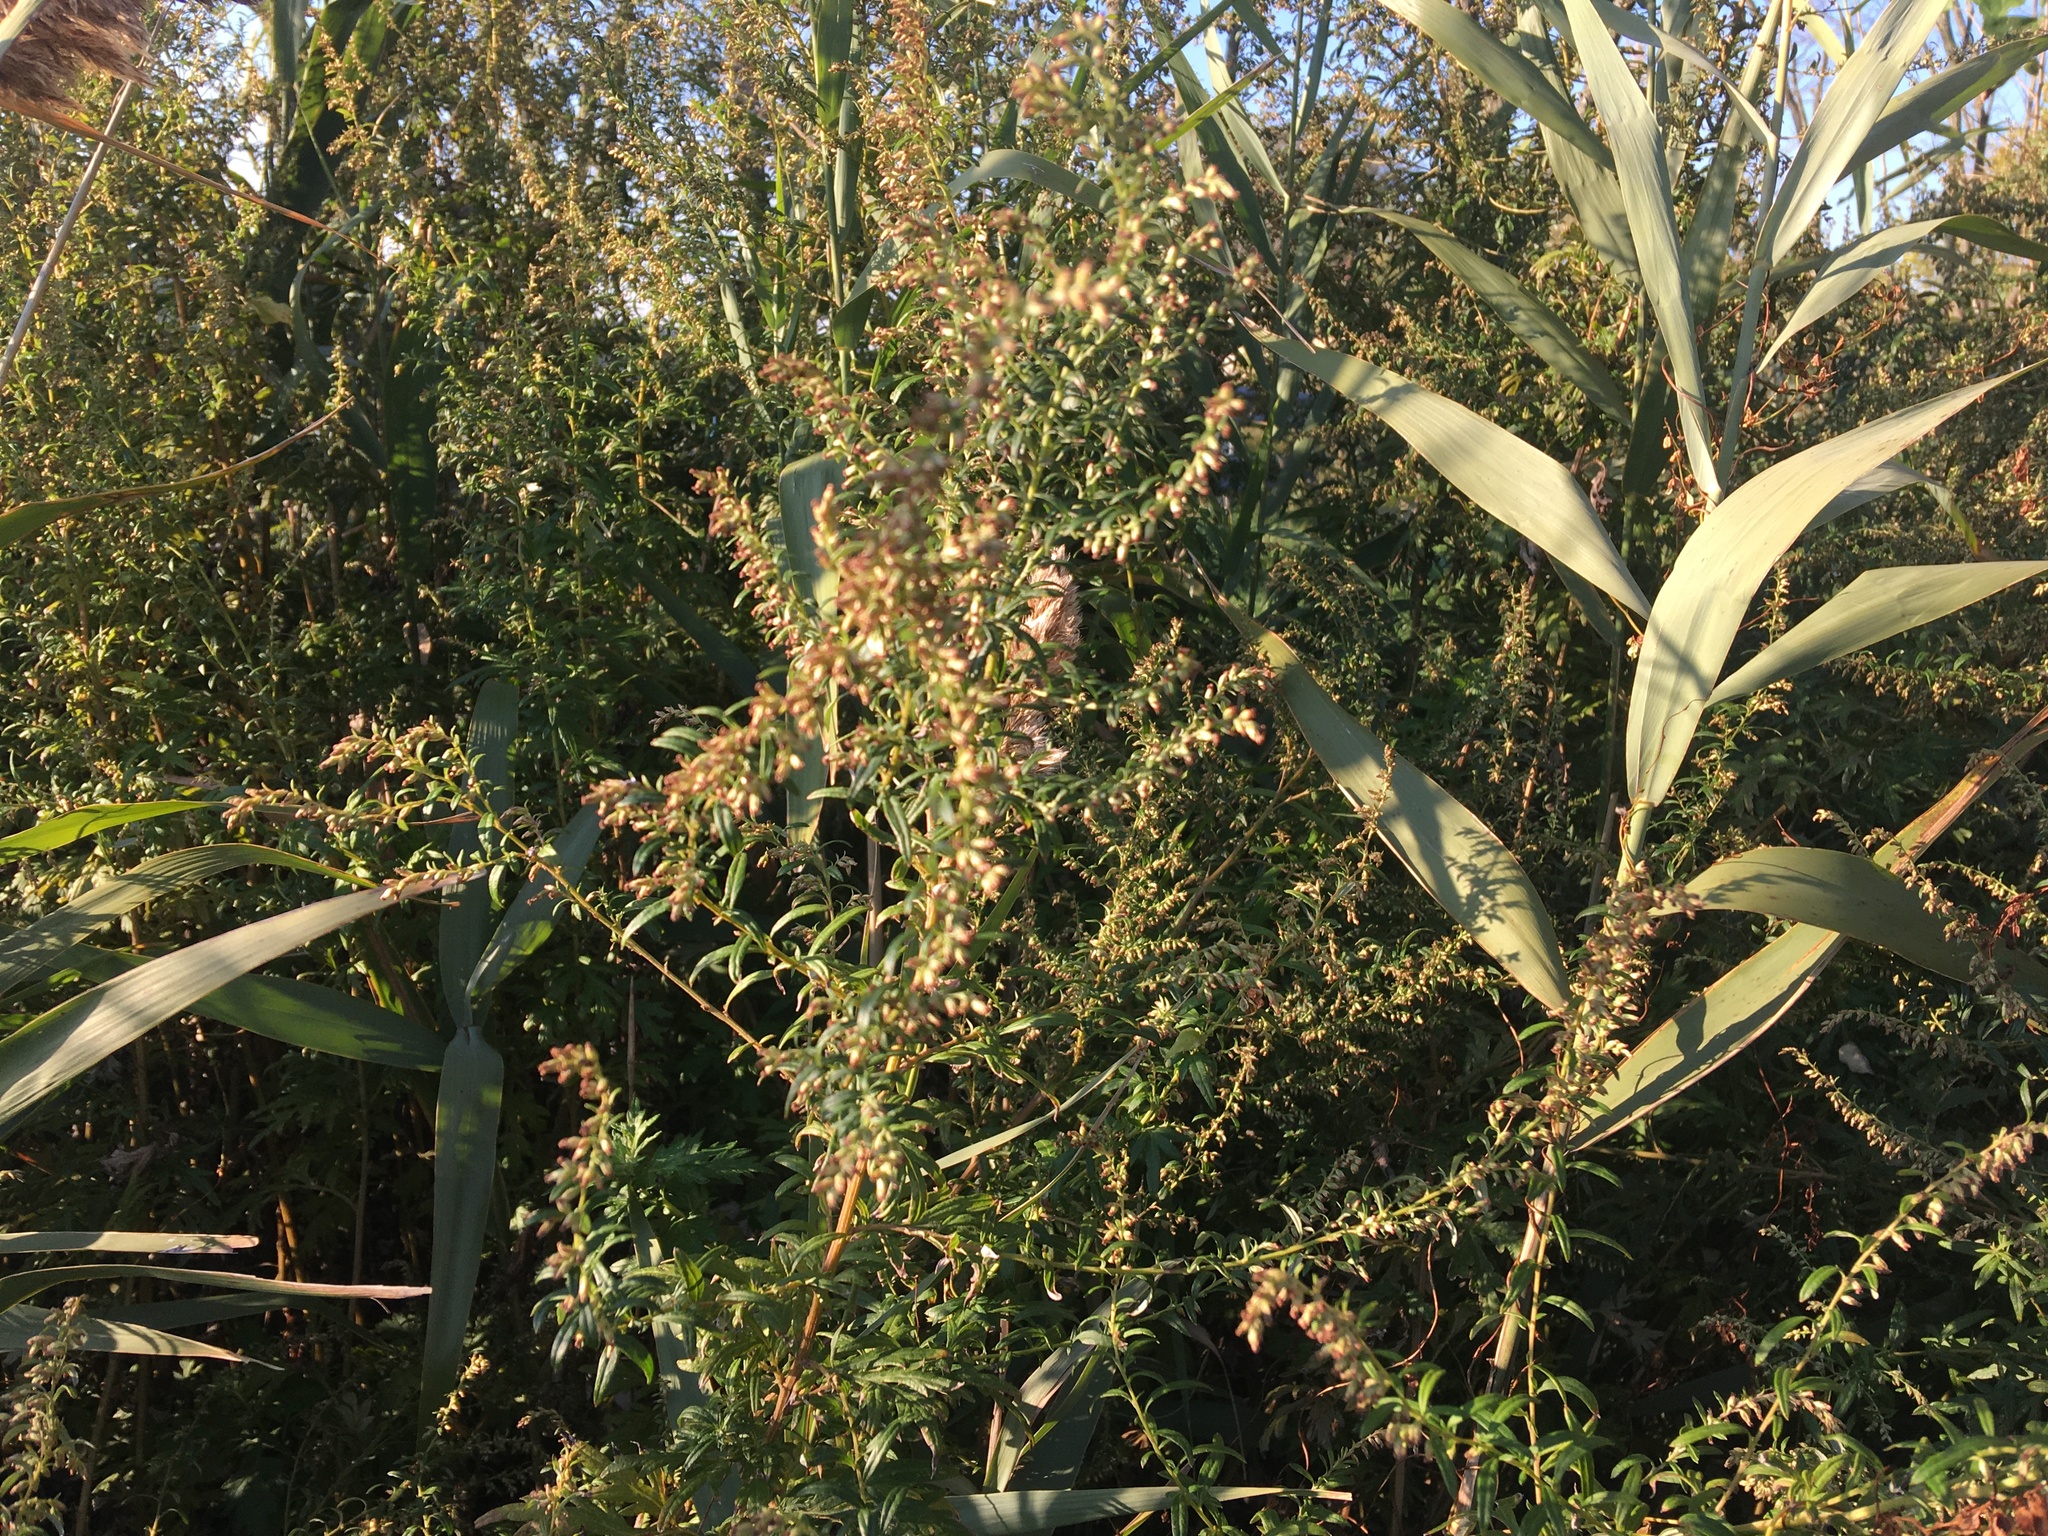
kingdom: Plantae
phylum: Tracheophyta
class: Magnoliopsida
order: Asterales
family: Asteraceae
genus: Artemisia
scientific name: Artemisia vulgaris
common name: Mugwort
